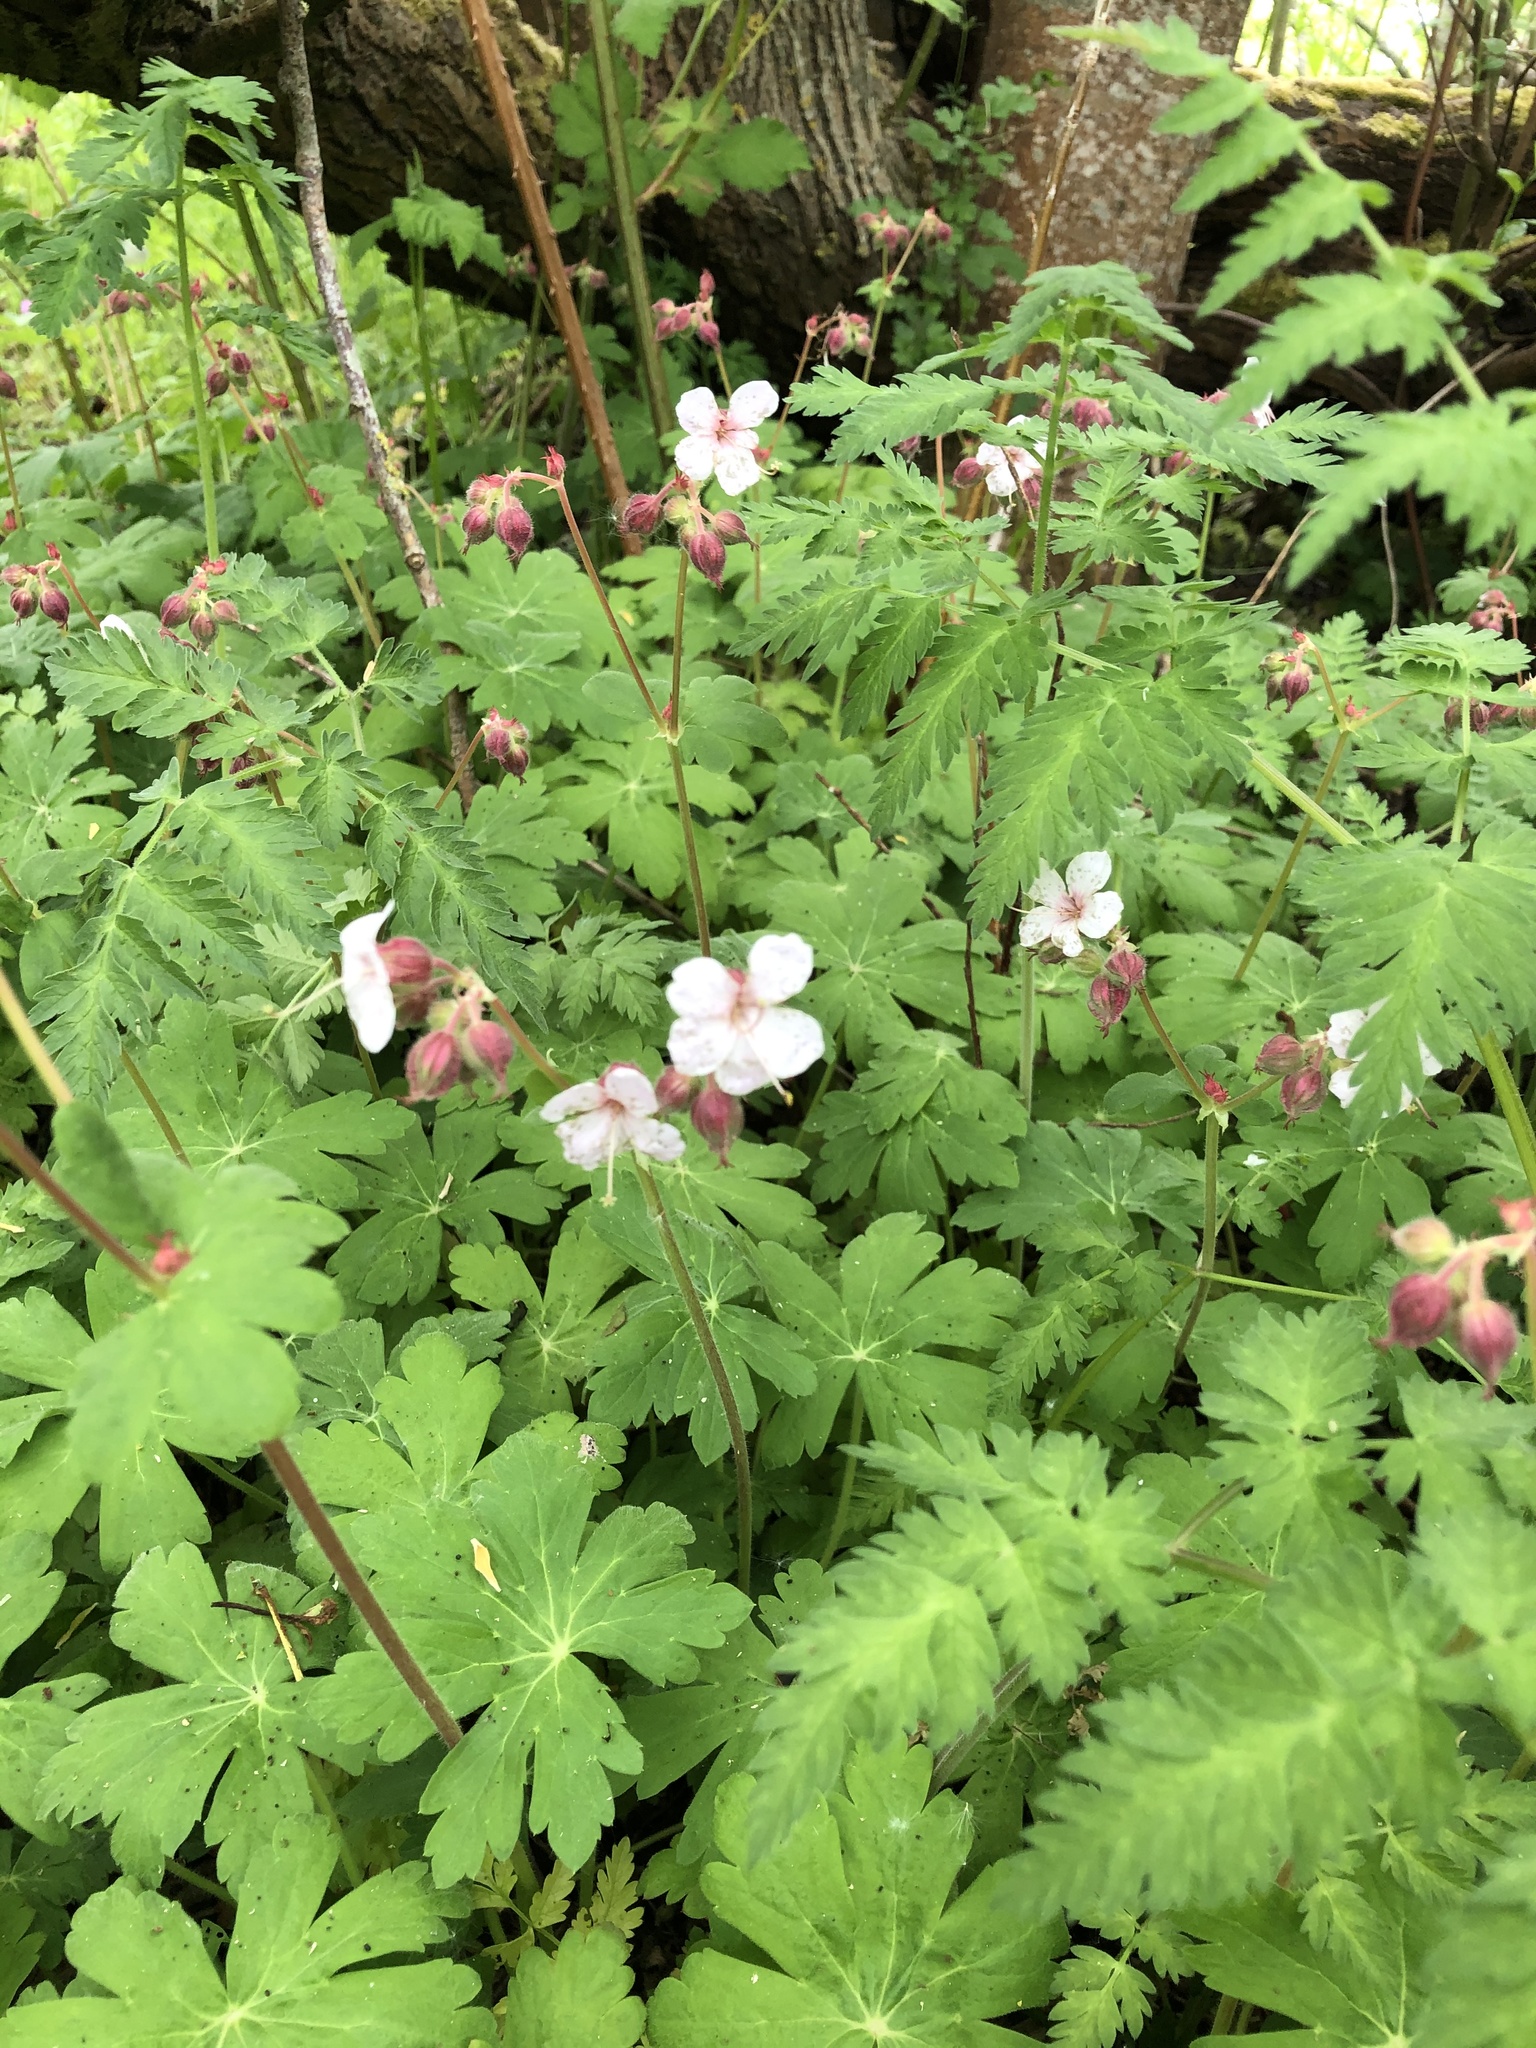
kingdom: Plantae
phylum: Tracheophyta
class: Magnoliopsida
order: Geraniales
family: Geraniaceae
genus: Geranium
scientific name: Geranium macrorrhizum
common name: Rock crane's-bill
